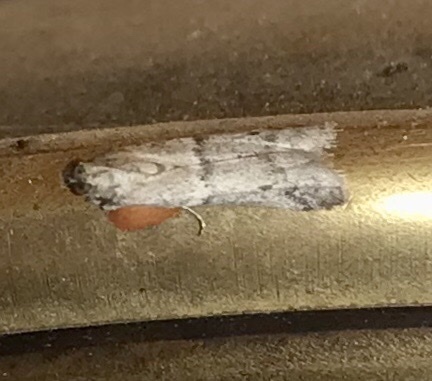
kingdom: Animalia
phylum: Arthropoda
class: Insecta
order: Lepidoptera
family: Pyralidae
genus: Ephestiodes
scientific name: Ephestiodes gilvescentella
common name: Moth
